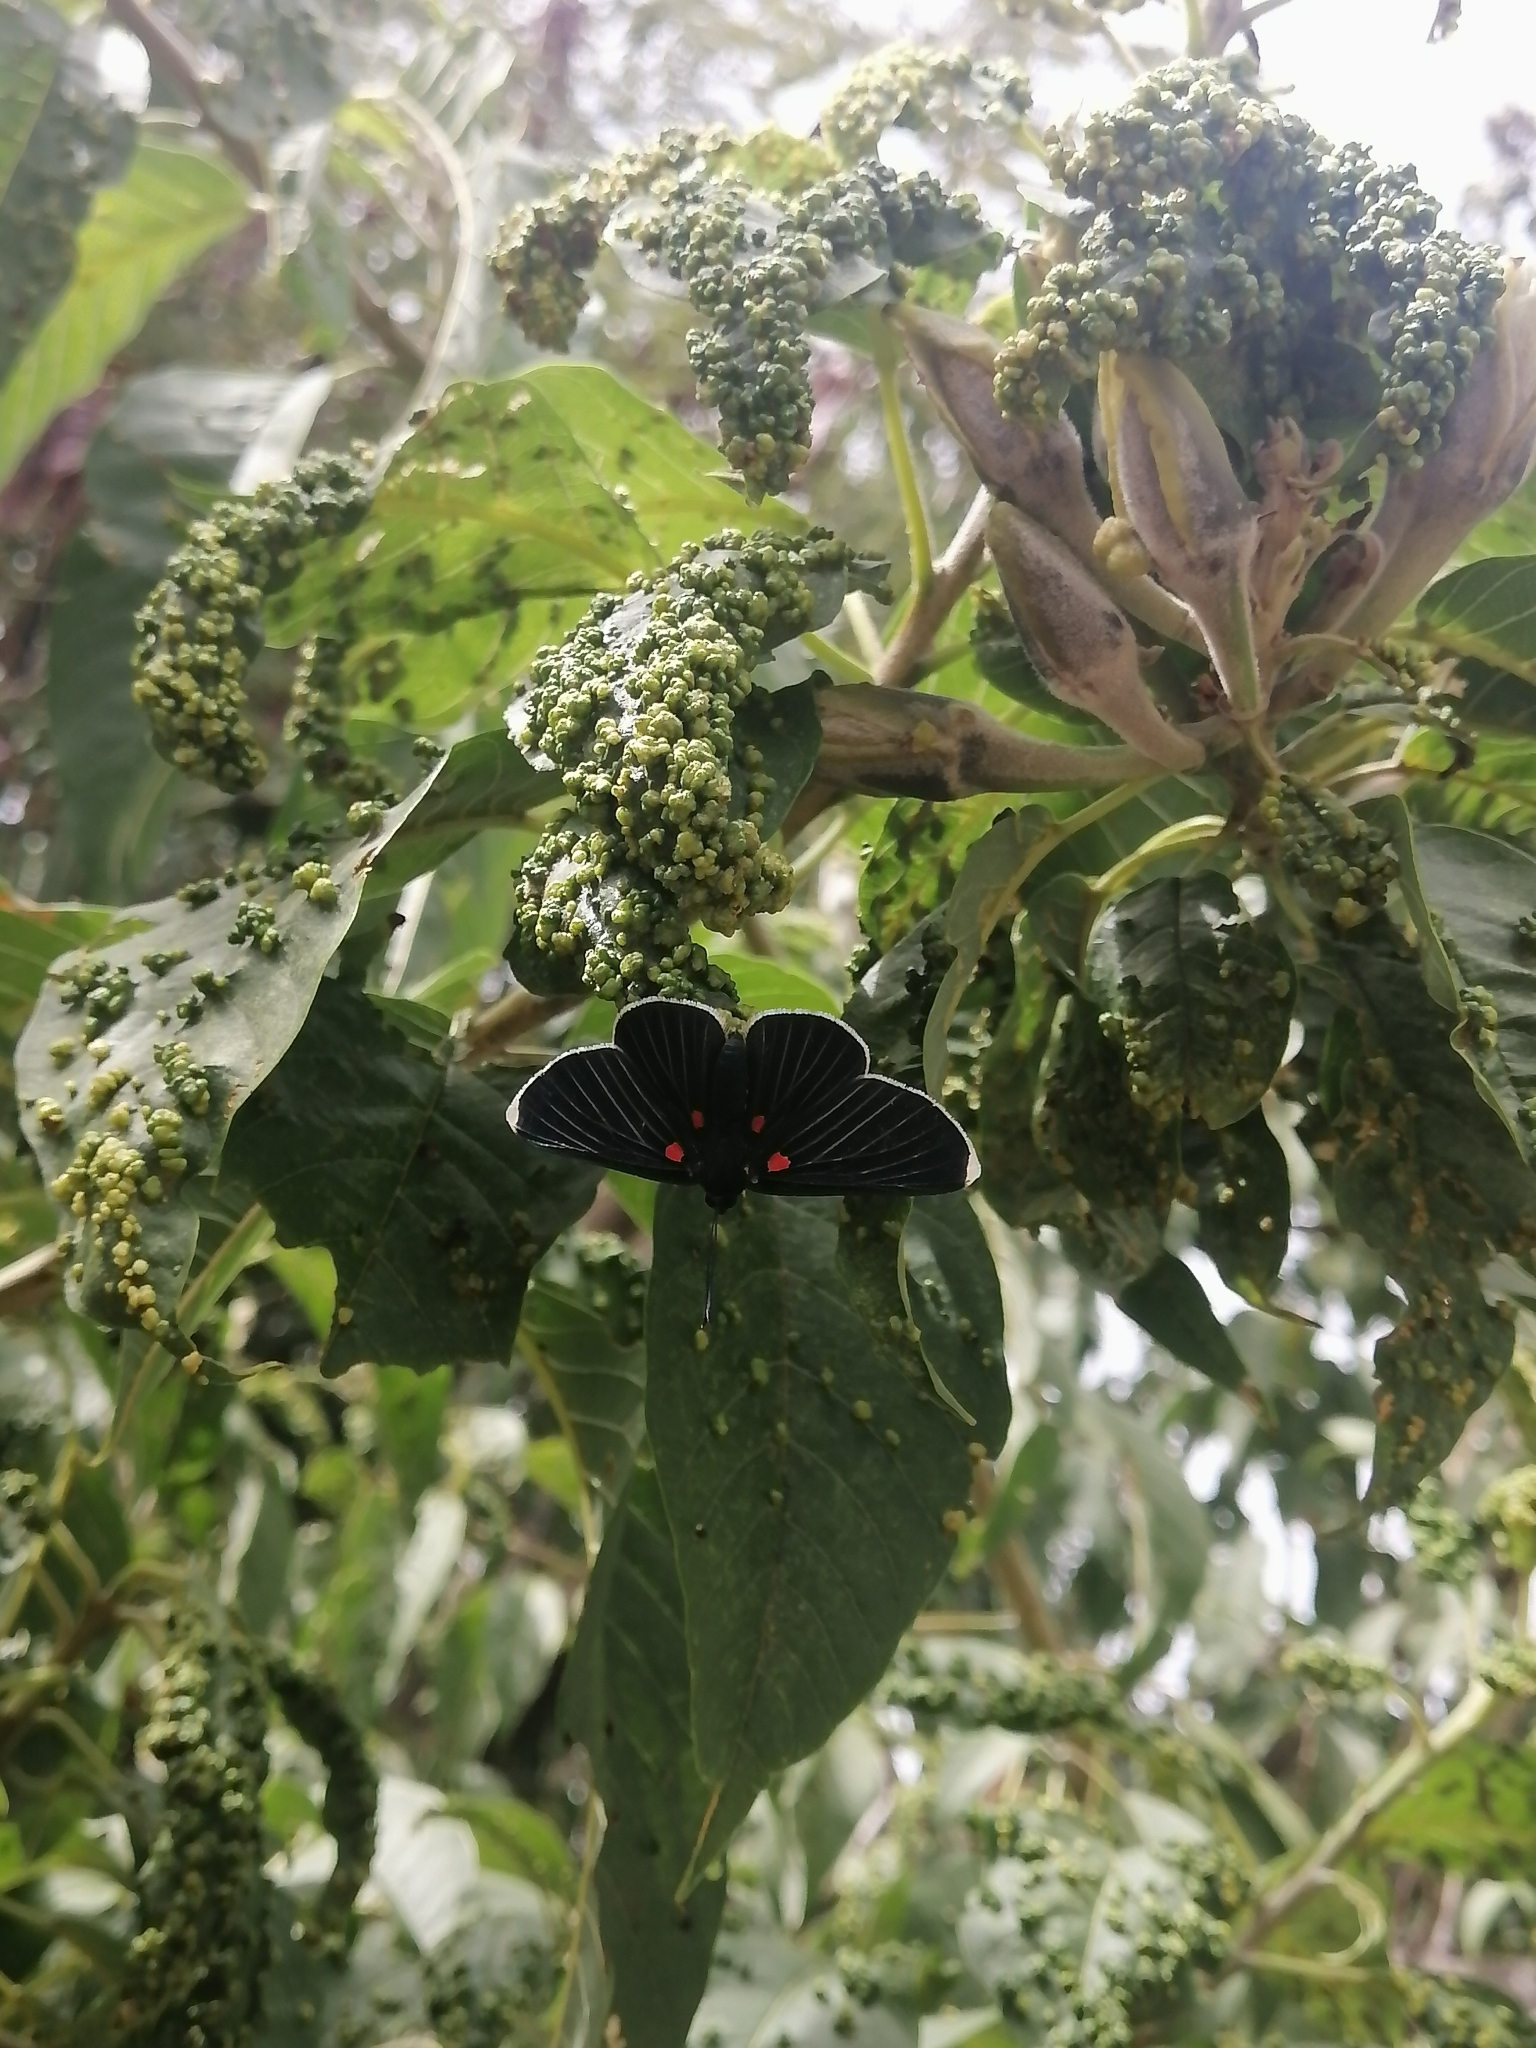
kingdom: Animalia
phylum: Arthropoda
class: Insecta
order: Lepidoptera
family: Lycaenidae
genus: Melanis
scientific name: Melanis
